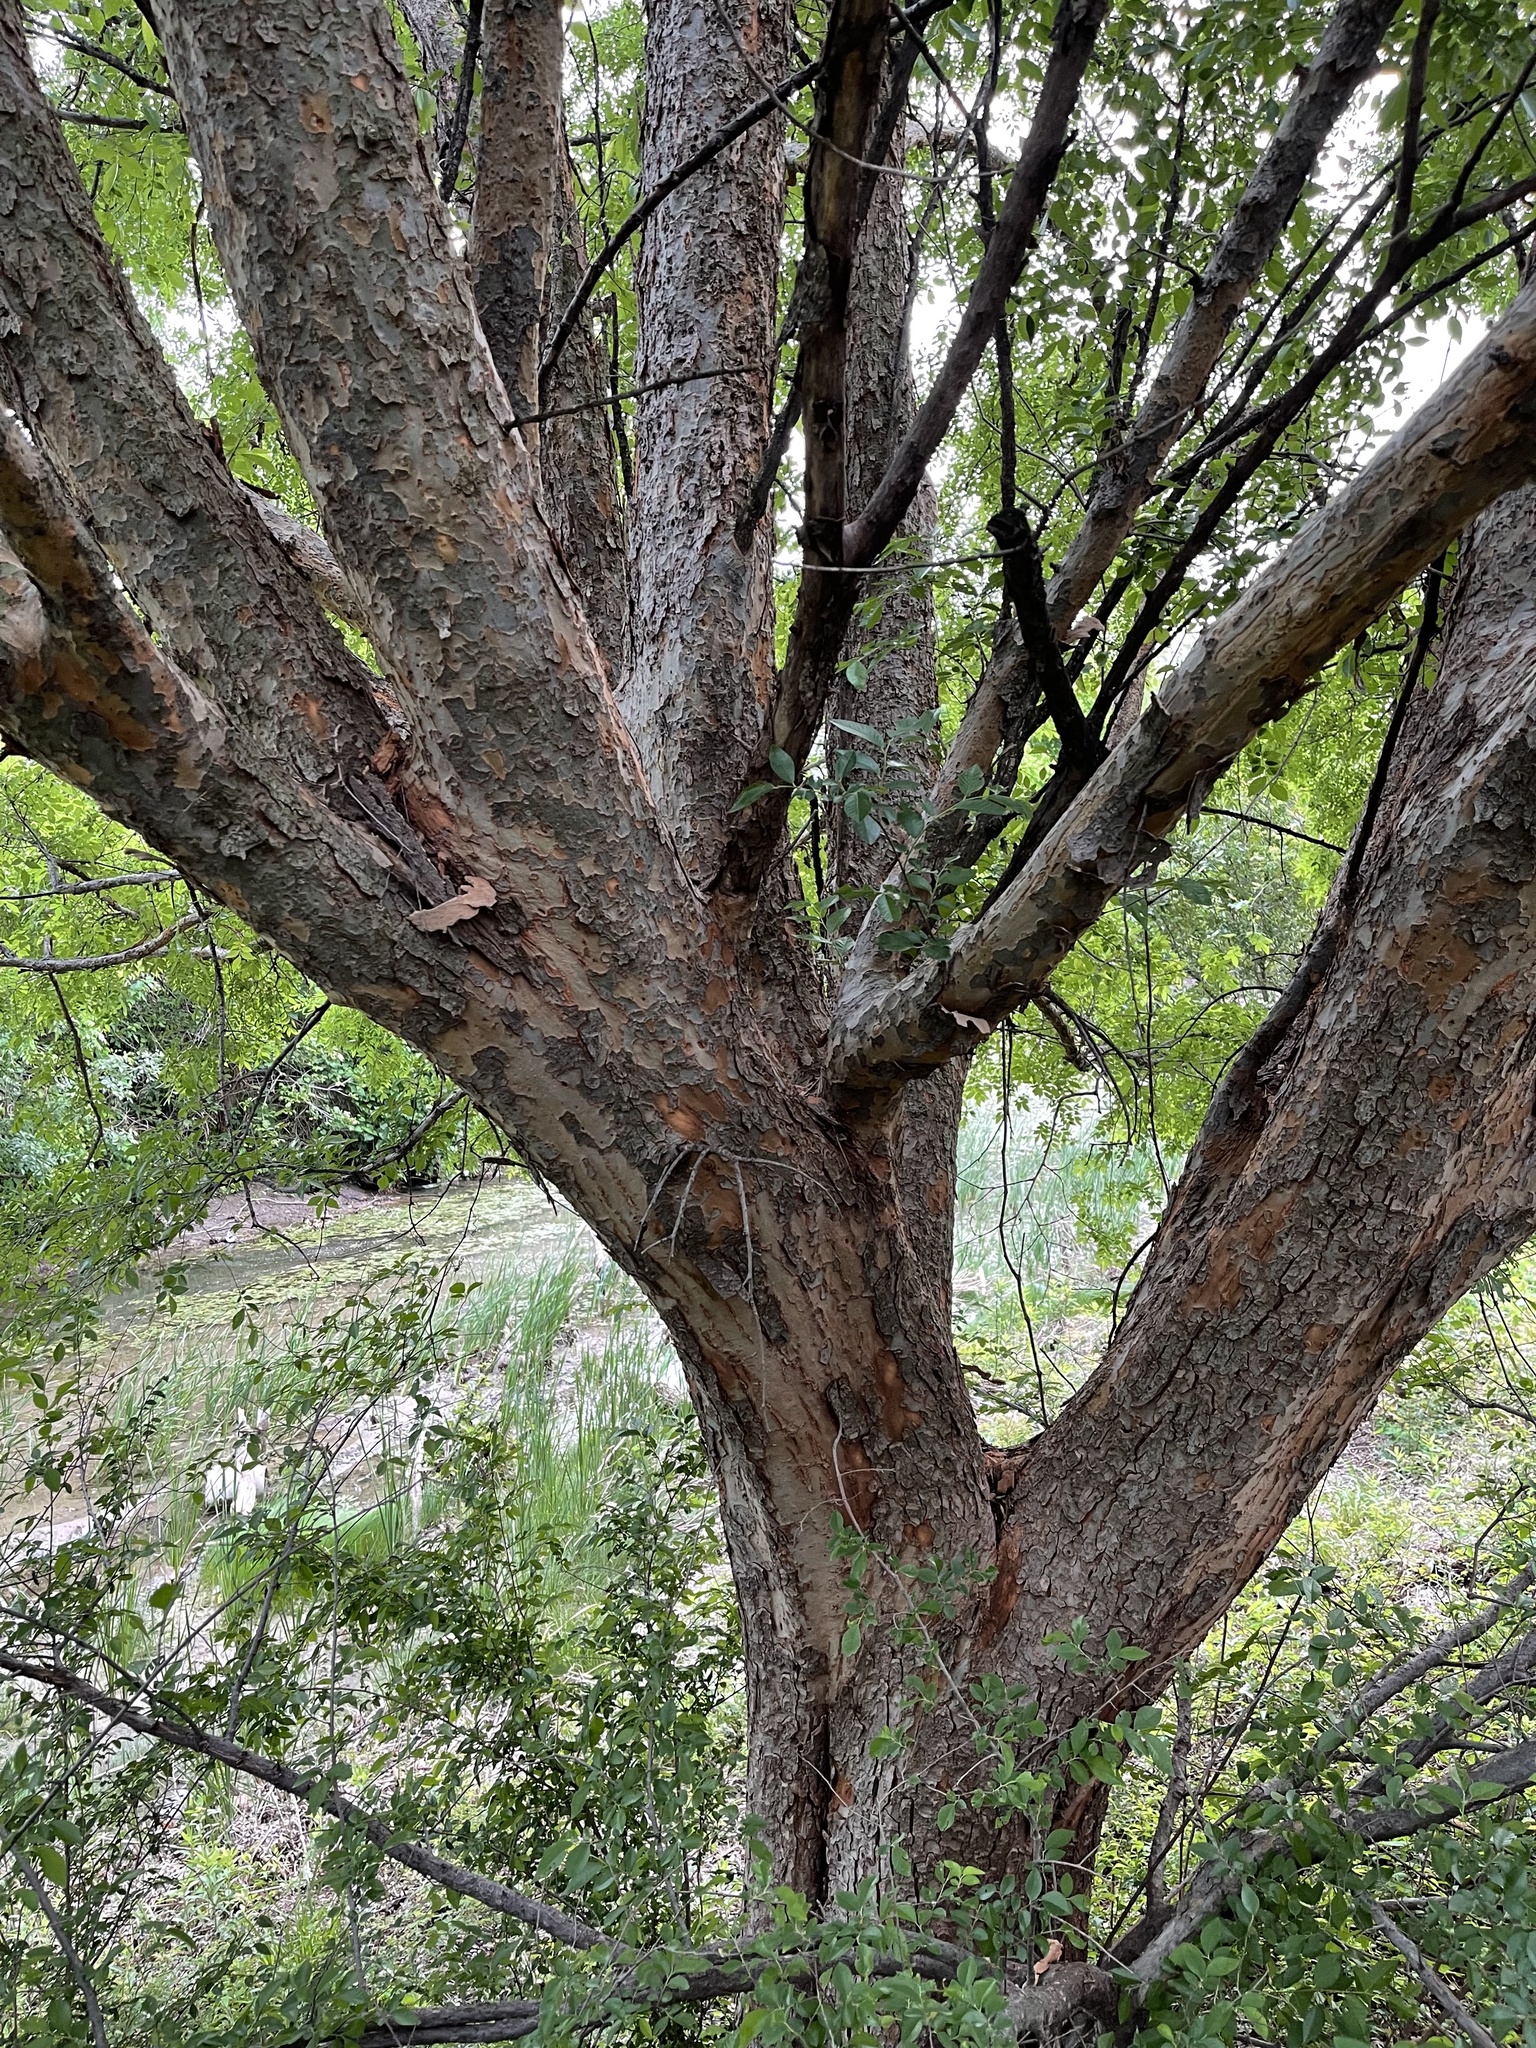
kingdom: Plantae
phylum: Tracheophyta
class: Magnoliopsida
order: Rosales
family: Ulmaceae
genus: Ulmus
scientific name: Ulmus parvifolia
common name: Chinese elm
